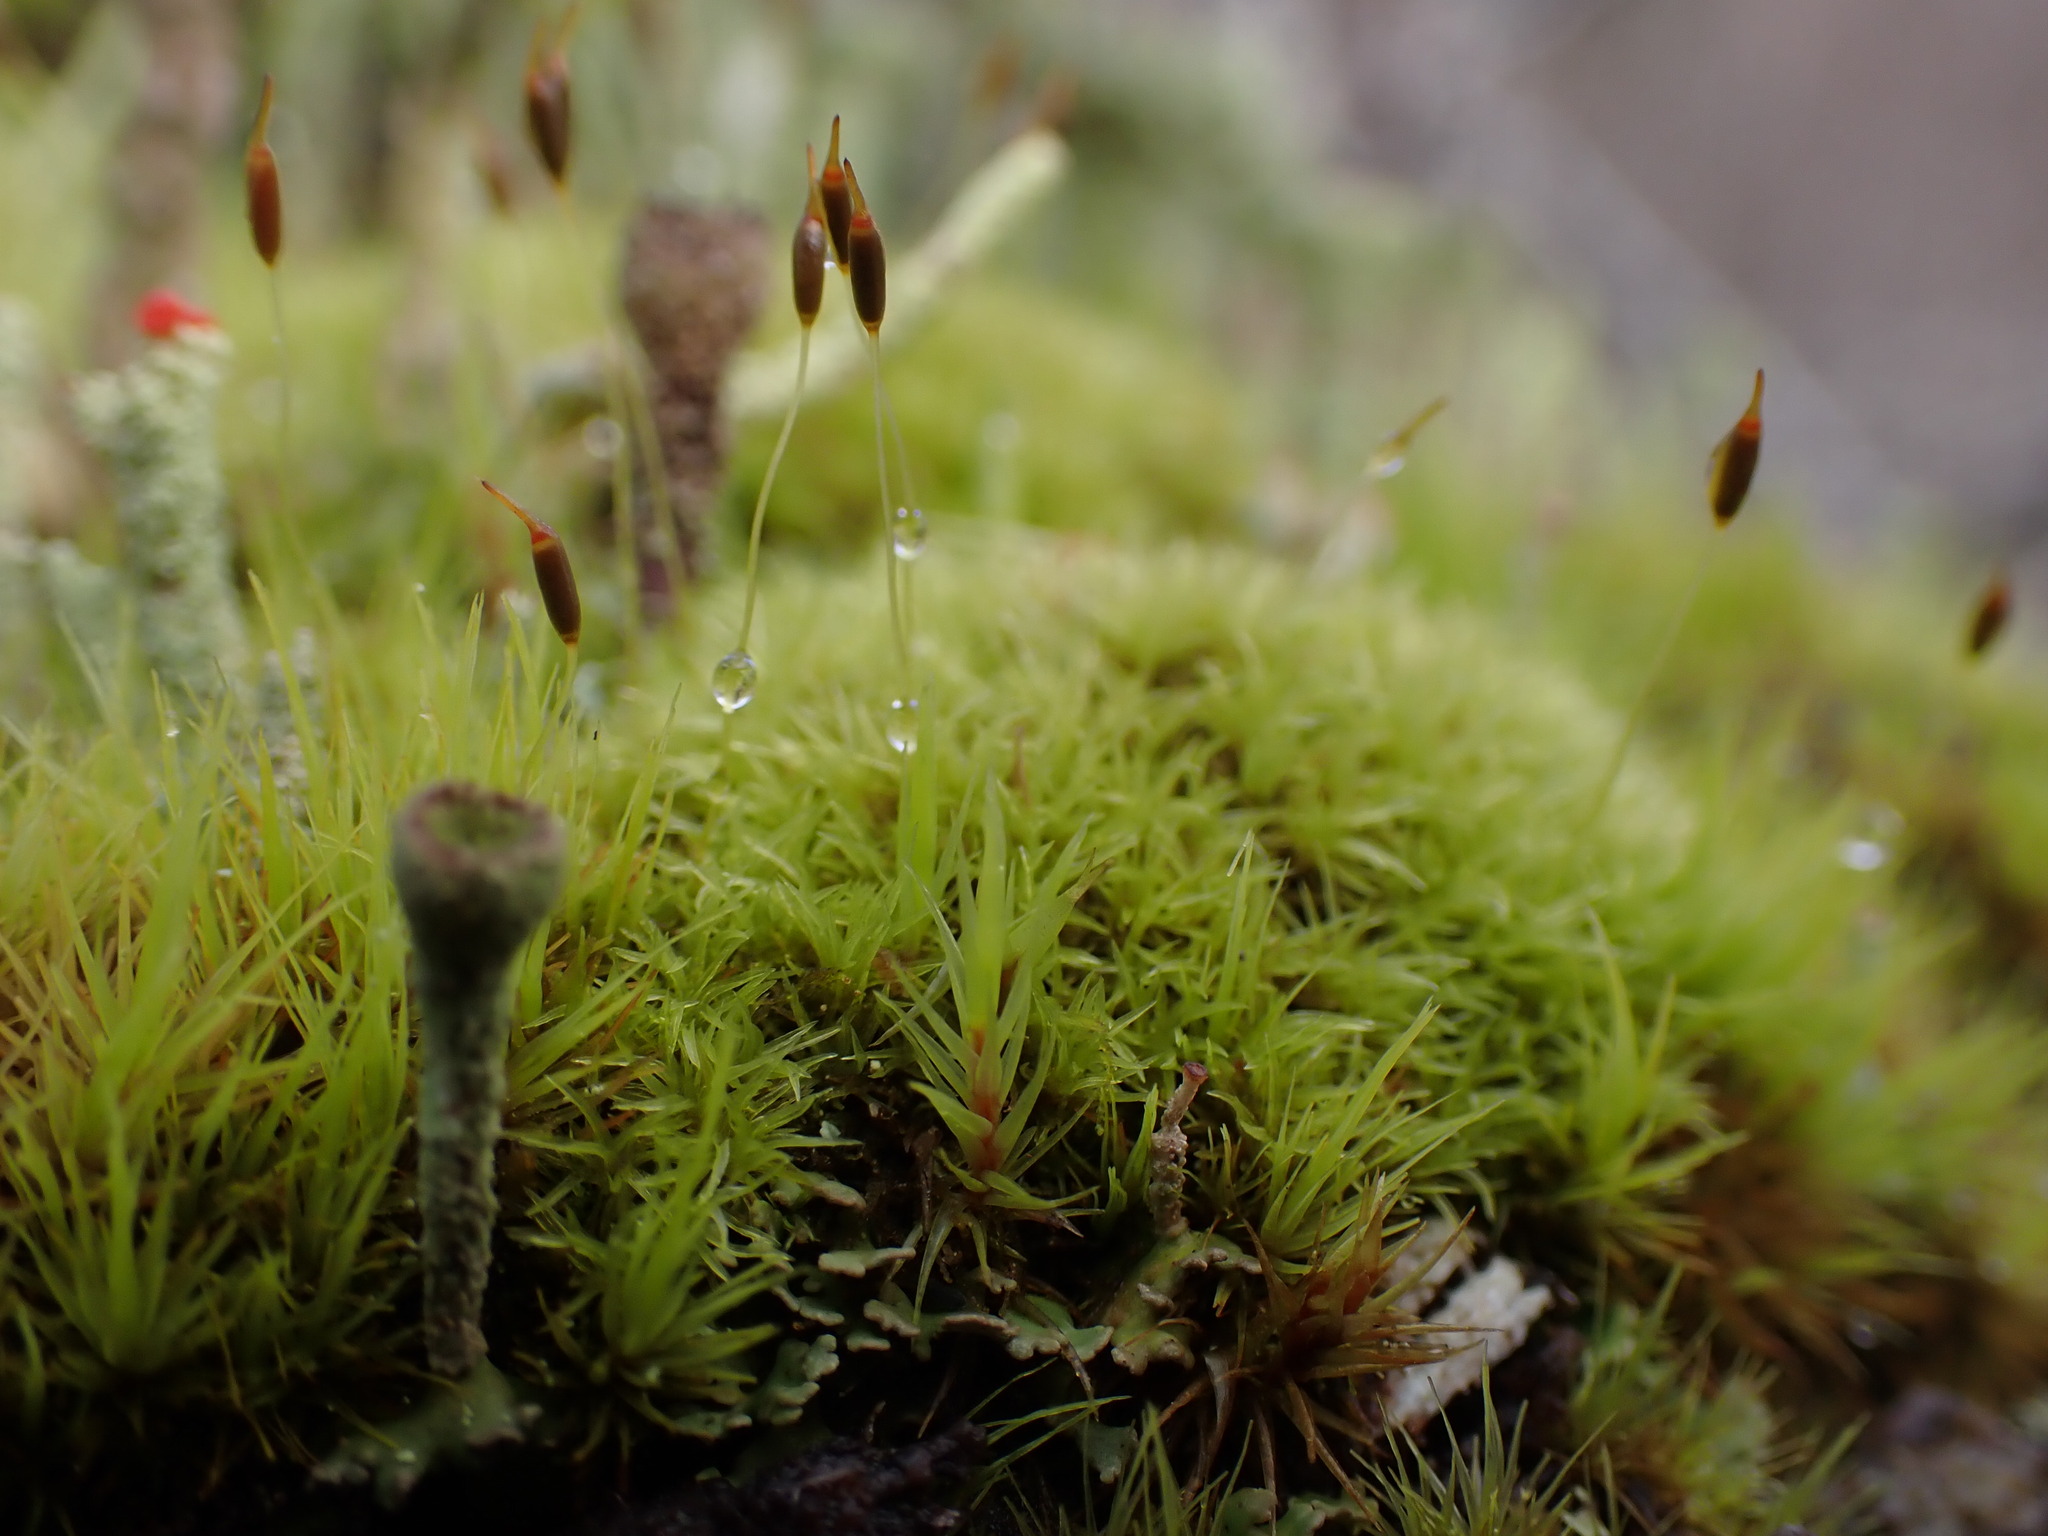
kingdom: Plantae
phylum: Bryophyta
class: Bryopsida
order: Dicranales
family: Rhabdoweisiaceae
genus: Dicranoweisia
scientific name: Dicranoweisia cirrata
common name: Common pincushion
